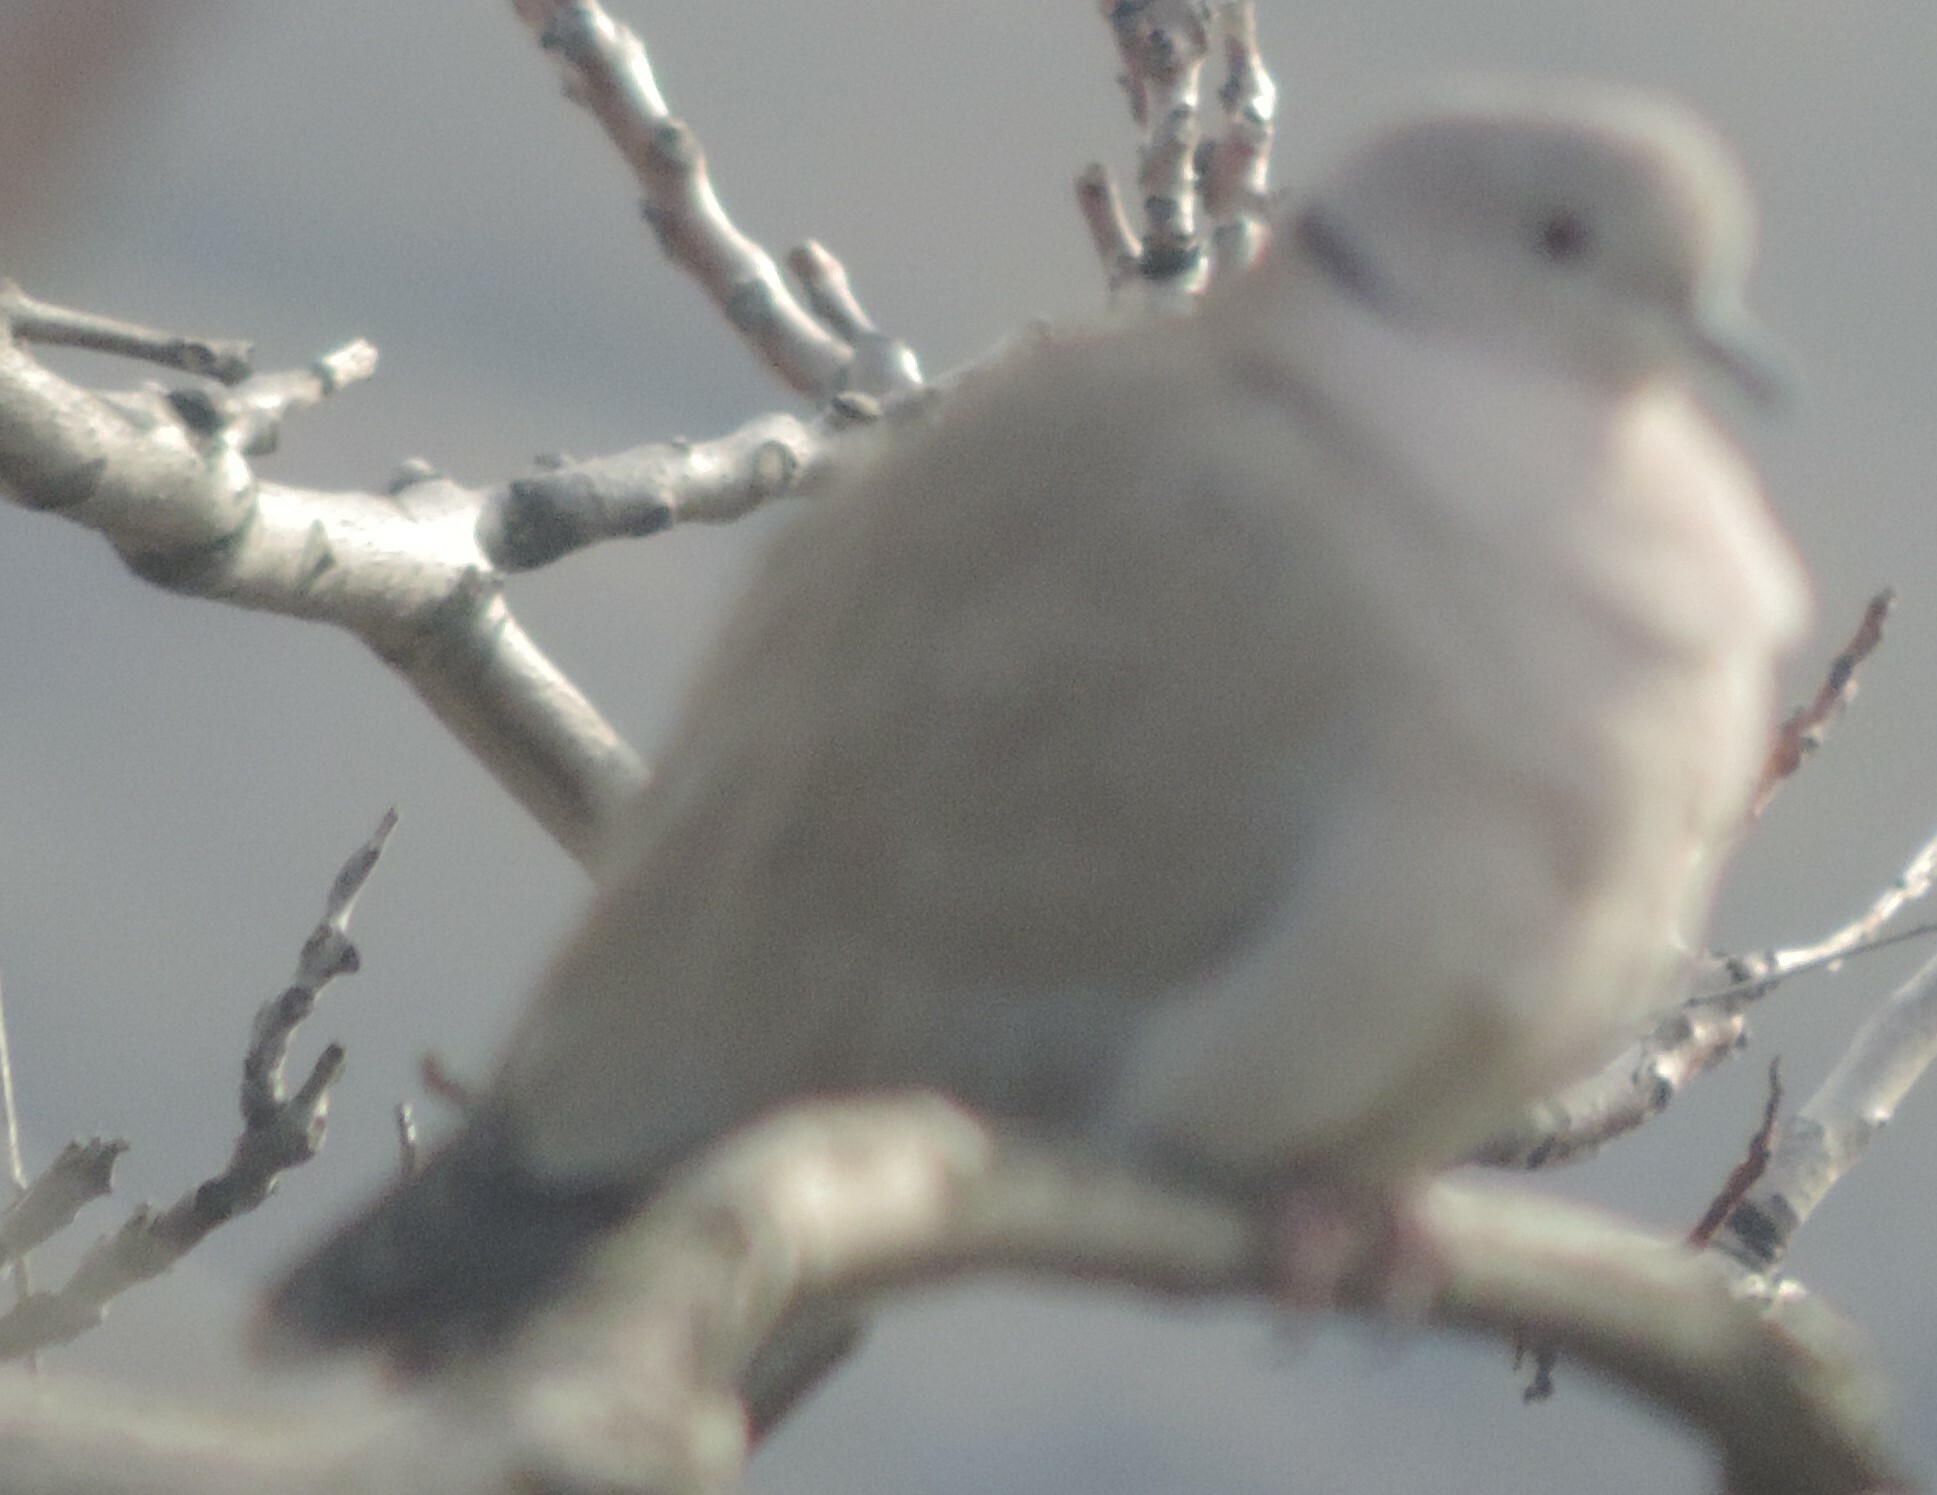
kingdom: Animalia
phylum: Chordata
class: Aves
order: Columbiformes
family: Columbidae
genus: Streptopelia
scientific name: Streptopelia decaocto
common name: Eurasian collared dove
